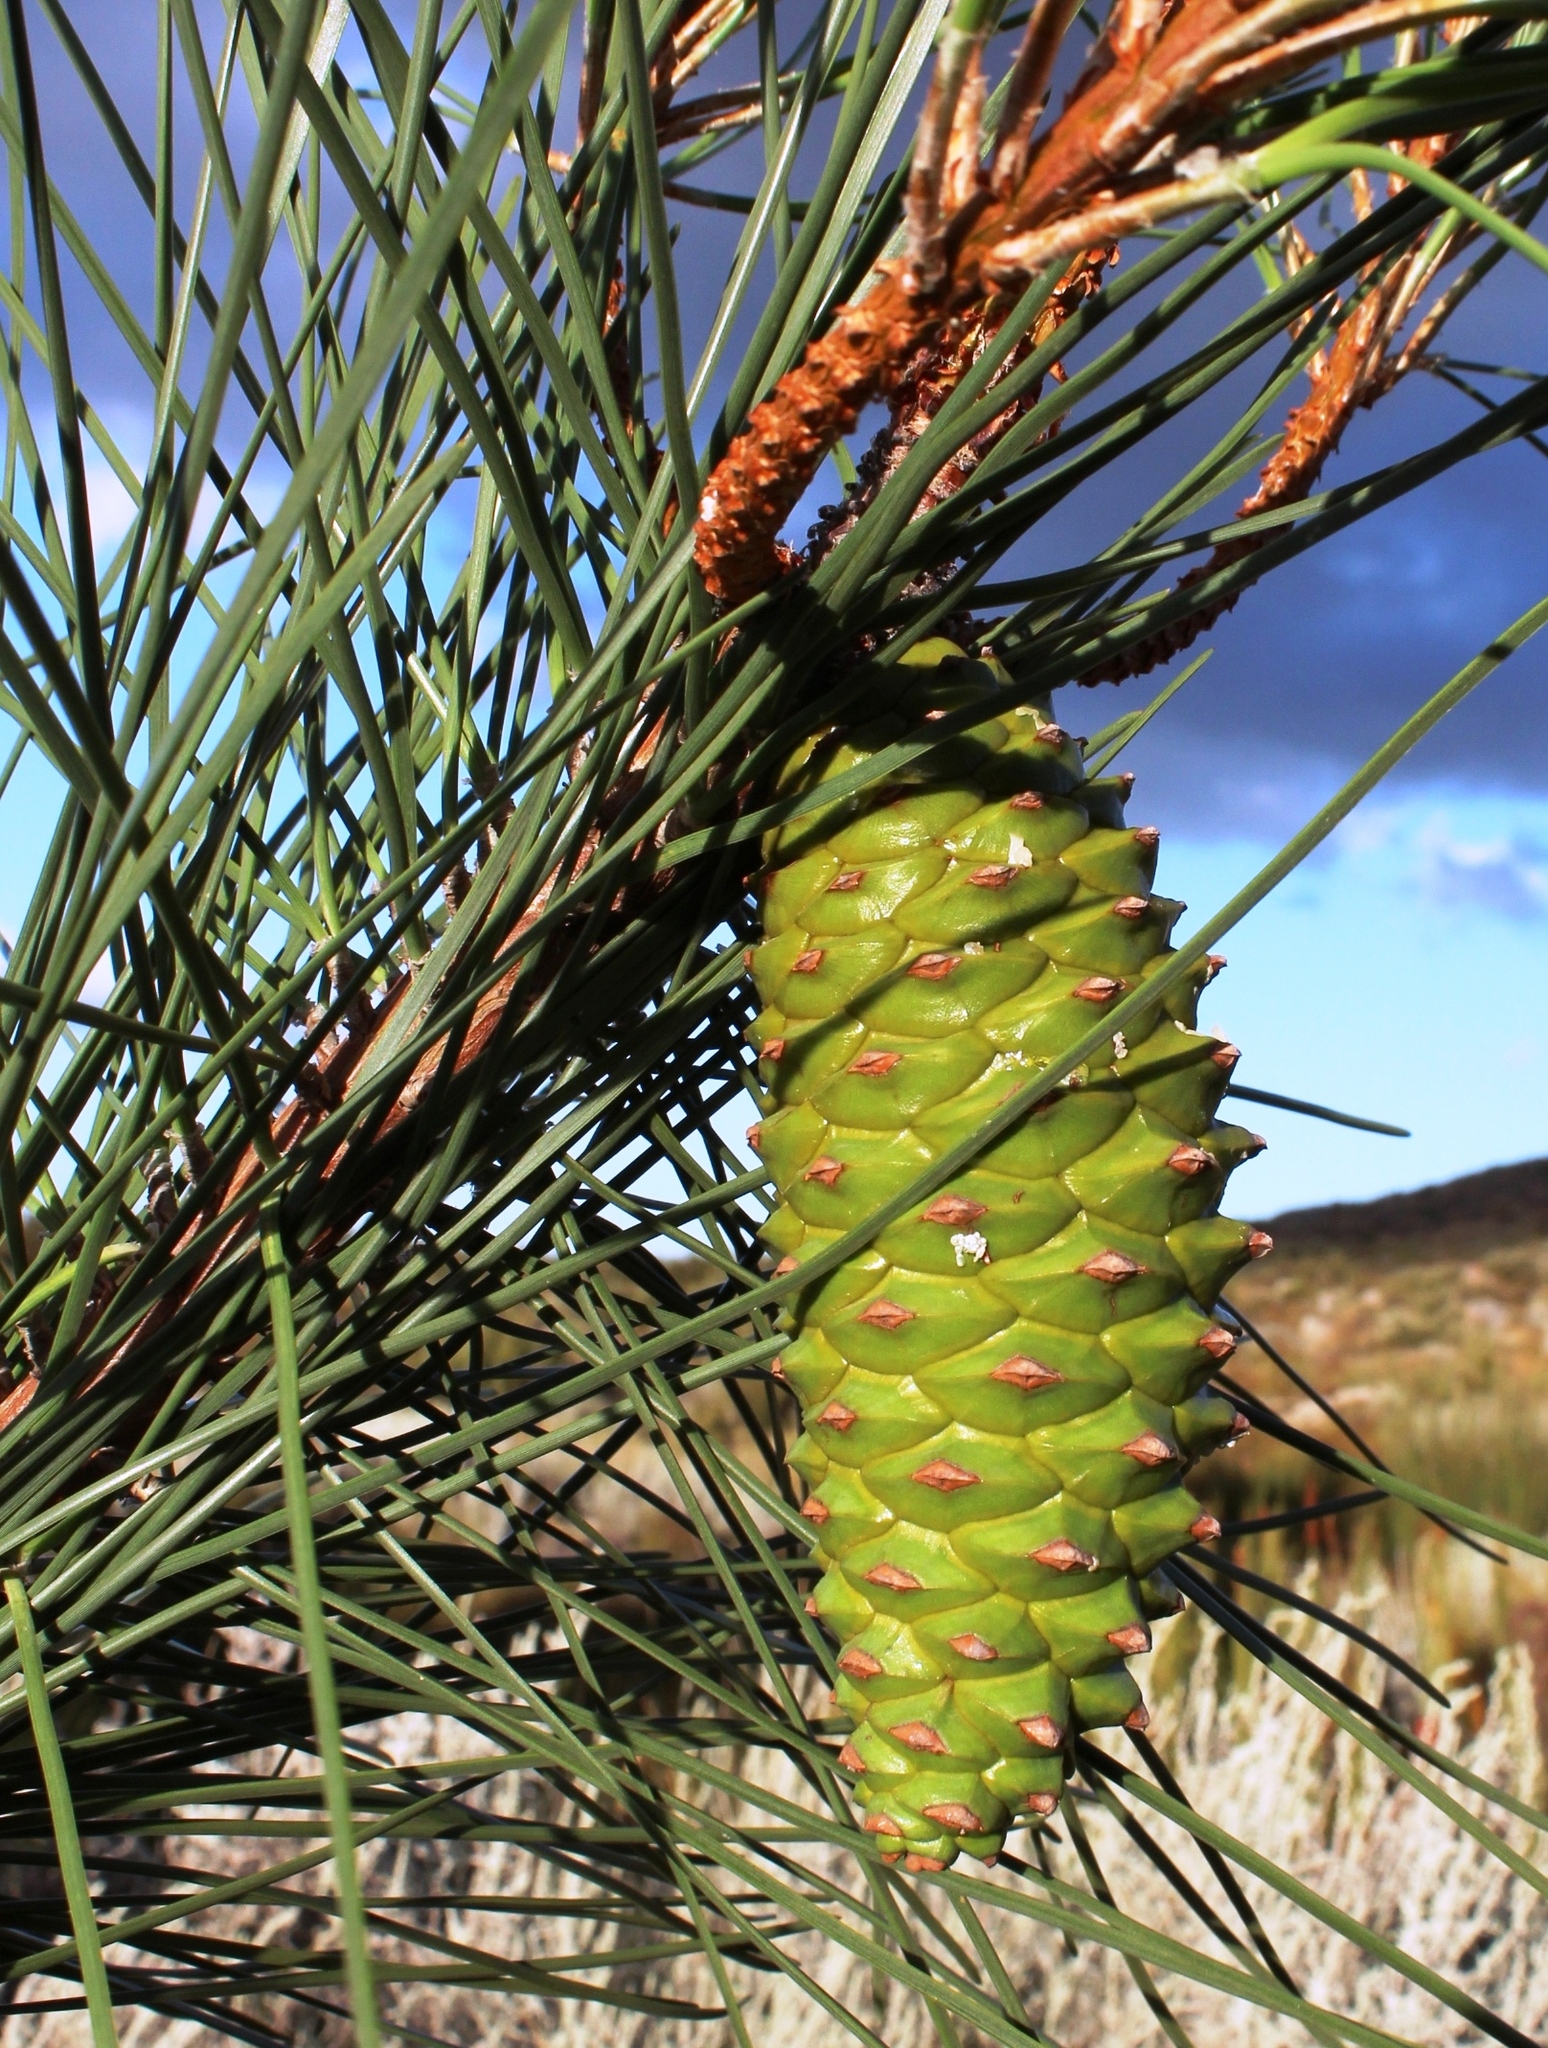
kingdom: Plantae
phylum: Tracheophyta
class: Pinopsida
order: Pinales
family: Pinaceae
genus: Pinus
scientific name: Pinus pinaster
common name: Maritime pine
